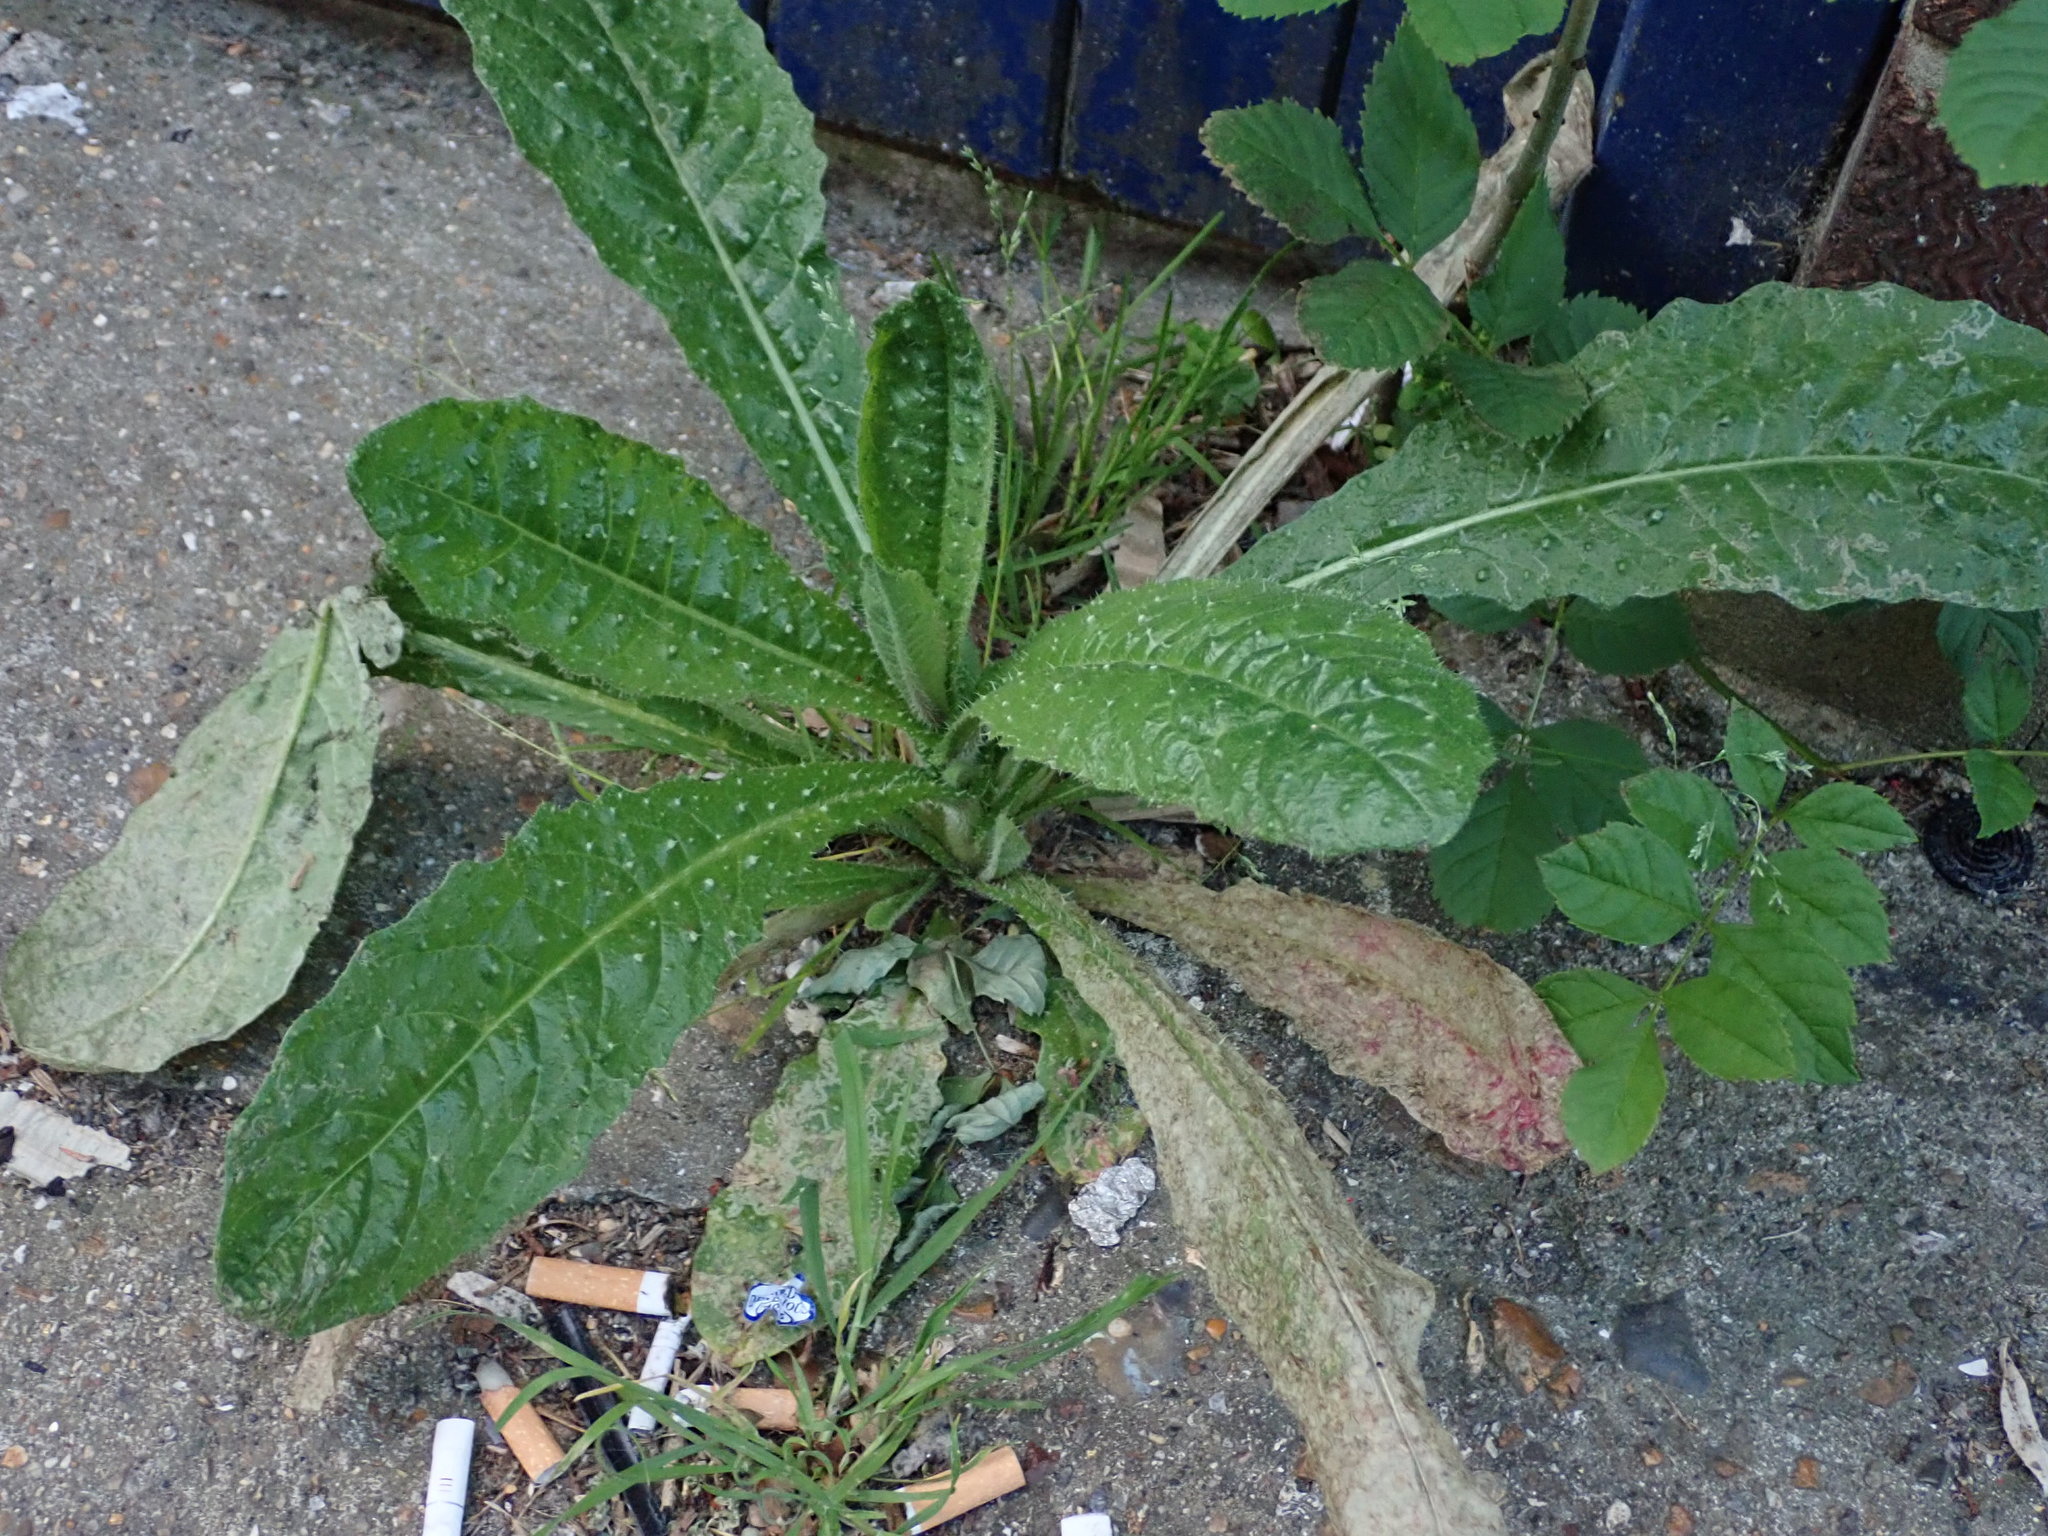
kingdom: Plantae
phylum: Tracheophyta
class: Magnoliopsida
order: Asterales
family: Asteraceae
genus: Helminthotheca
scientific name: Helminthotheca echioides
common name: Ox-tongue
